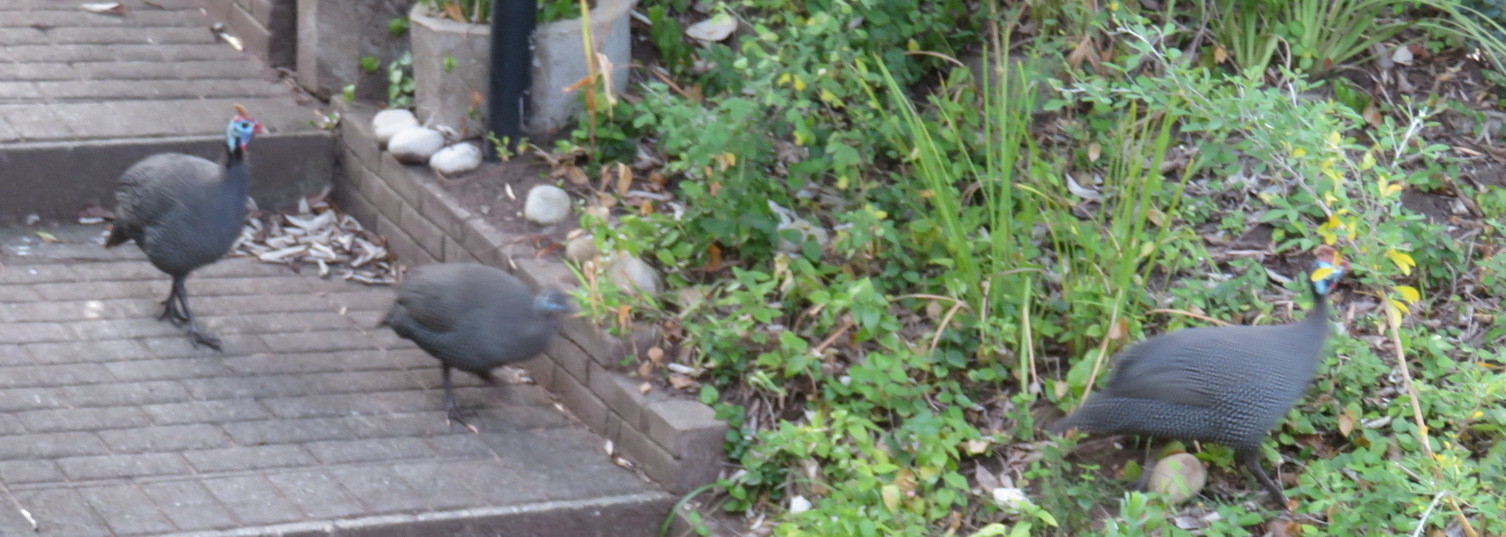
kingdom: Animalia
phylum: Chordata
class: Aves
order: Galliformes
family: Numididae
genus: Numida
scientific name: Numida meleagris
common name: Helmeted guineafowl
